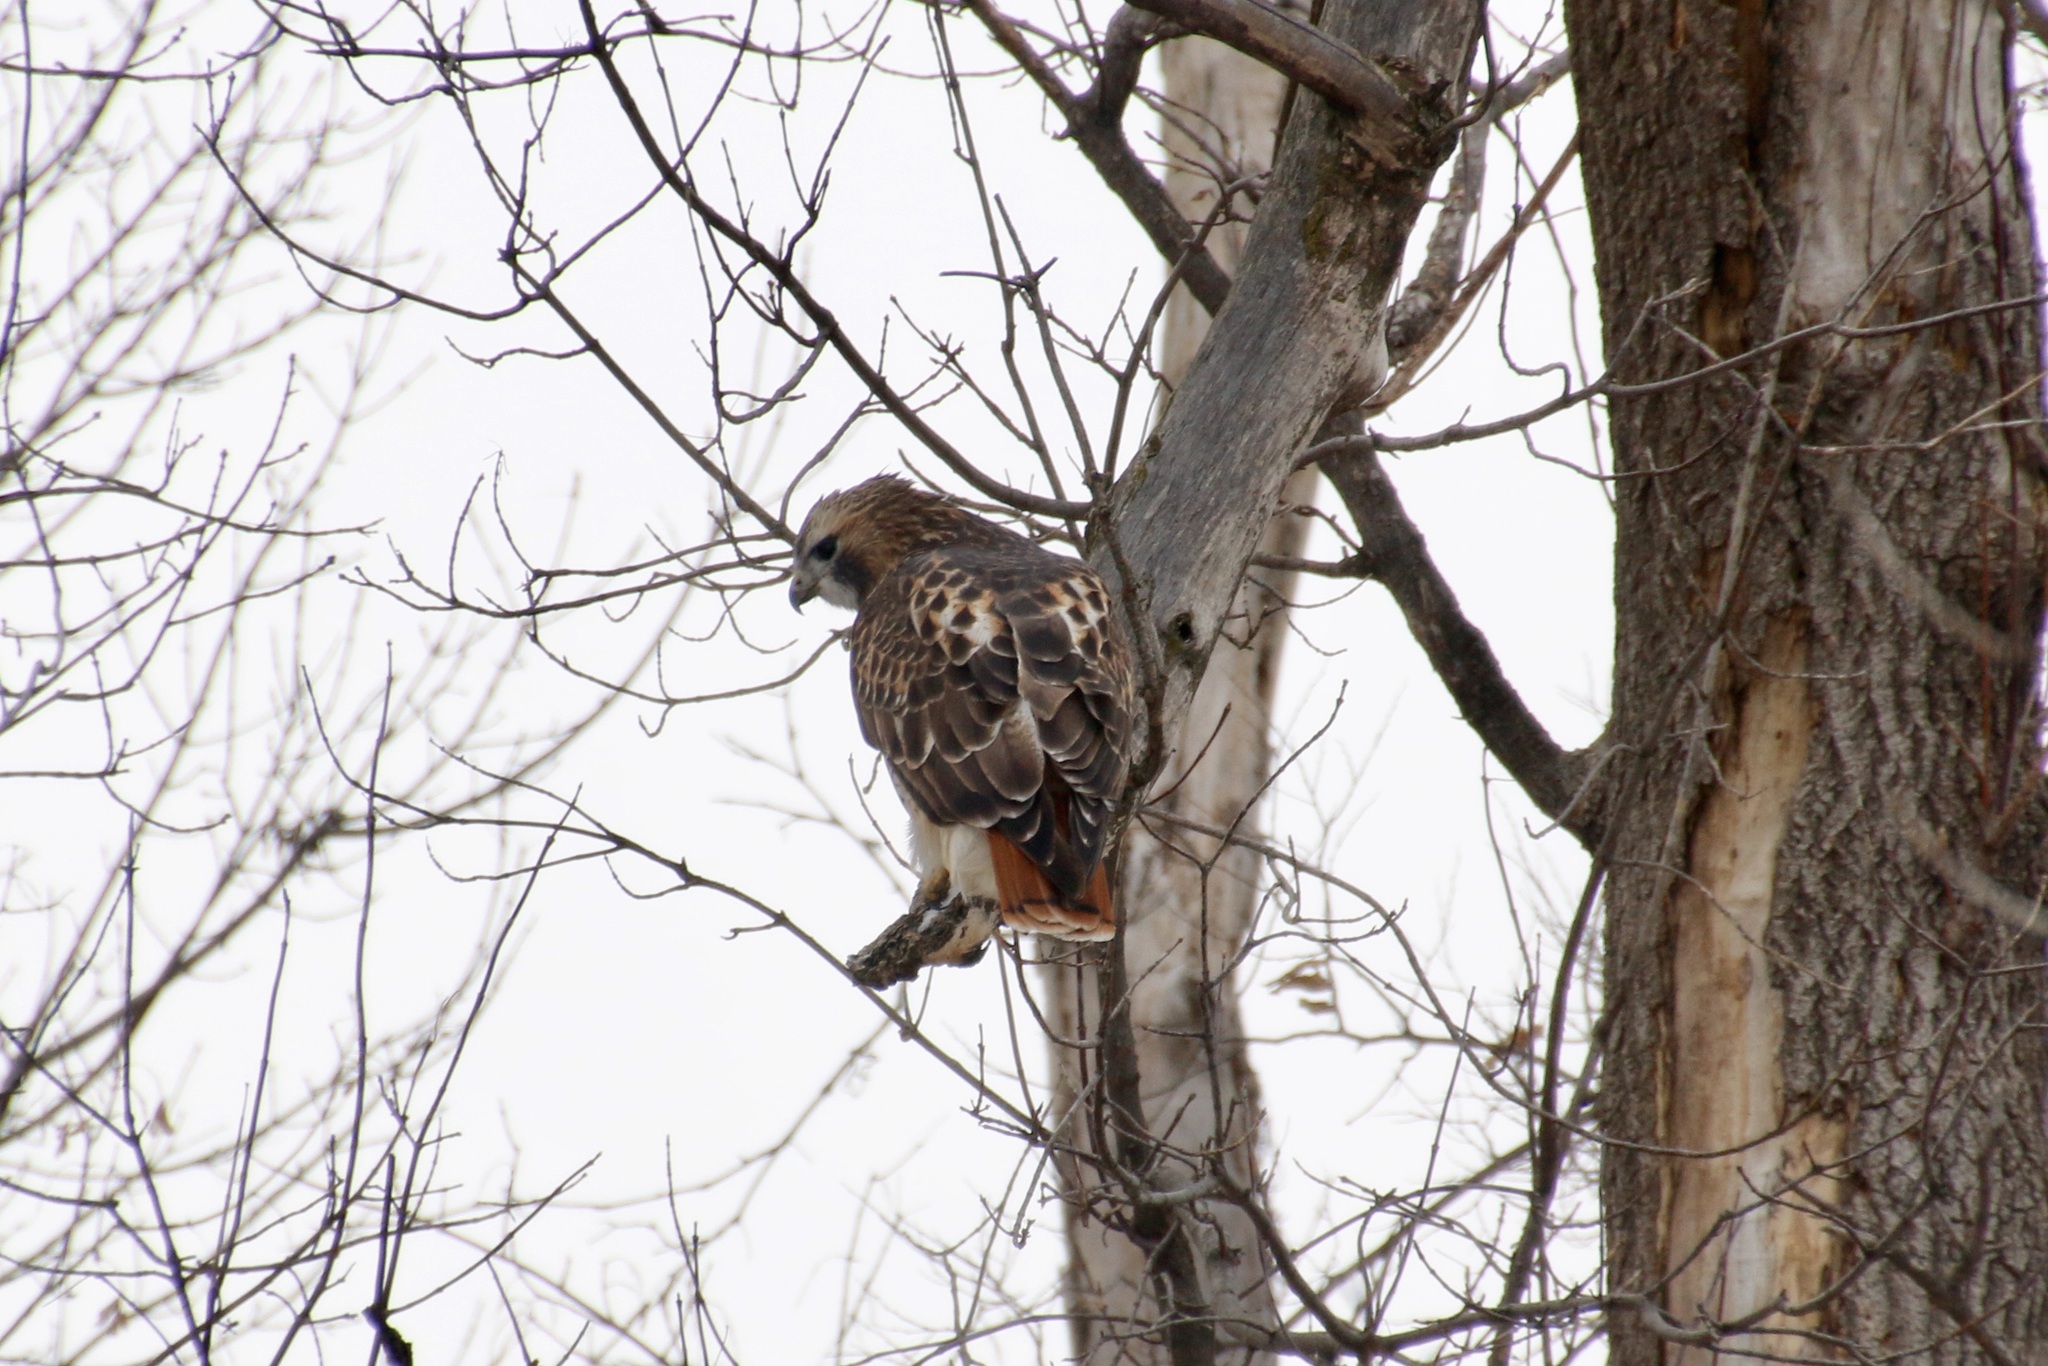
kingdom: Animalia
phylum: Chordata
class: Aves
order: Accipitriformes
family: Accipitridae
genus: Buteo
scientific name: Buteo jamaicensis
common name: Red-tailed hawk
